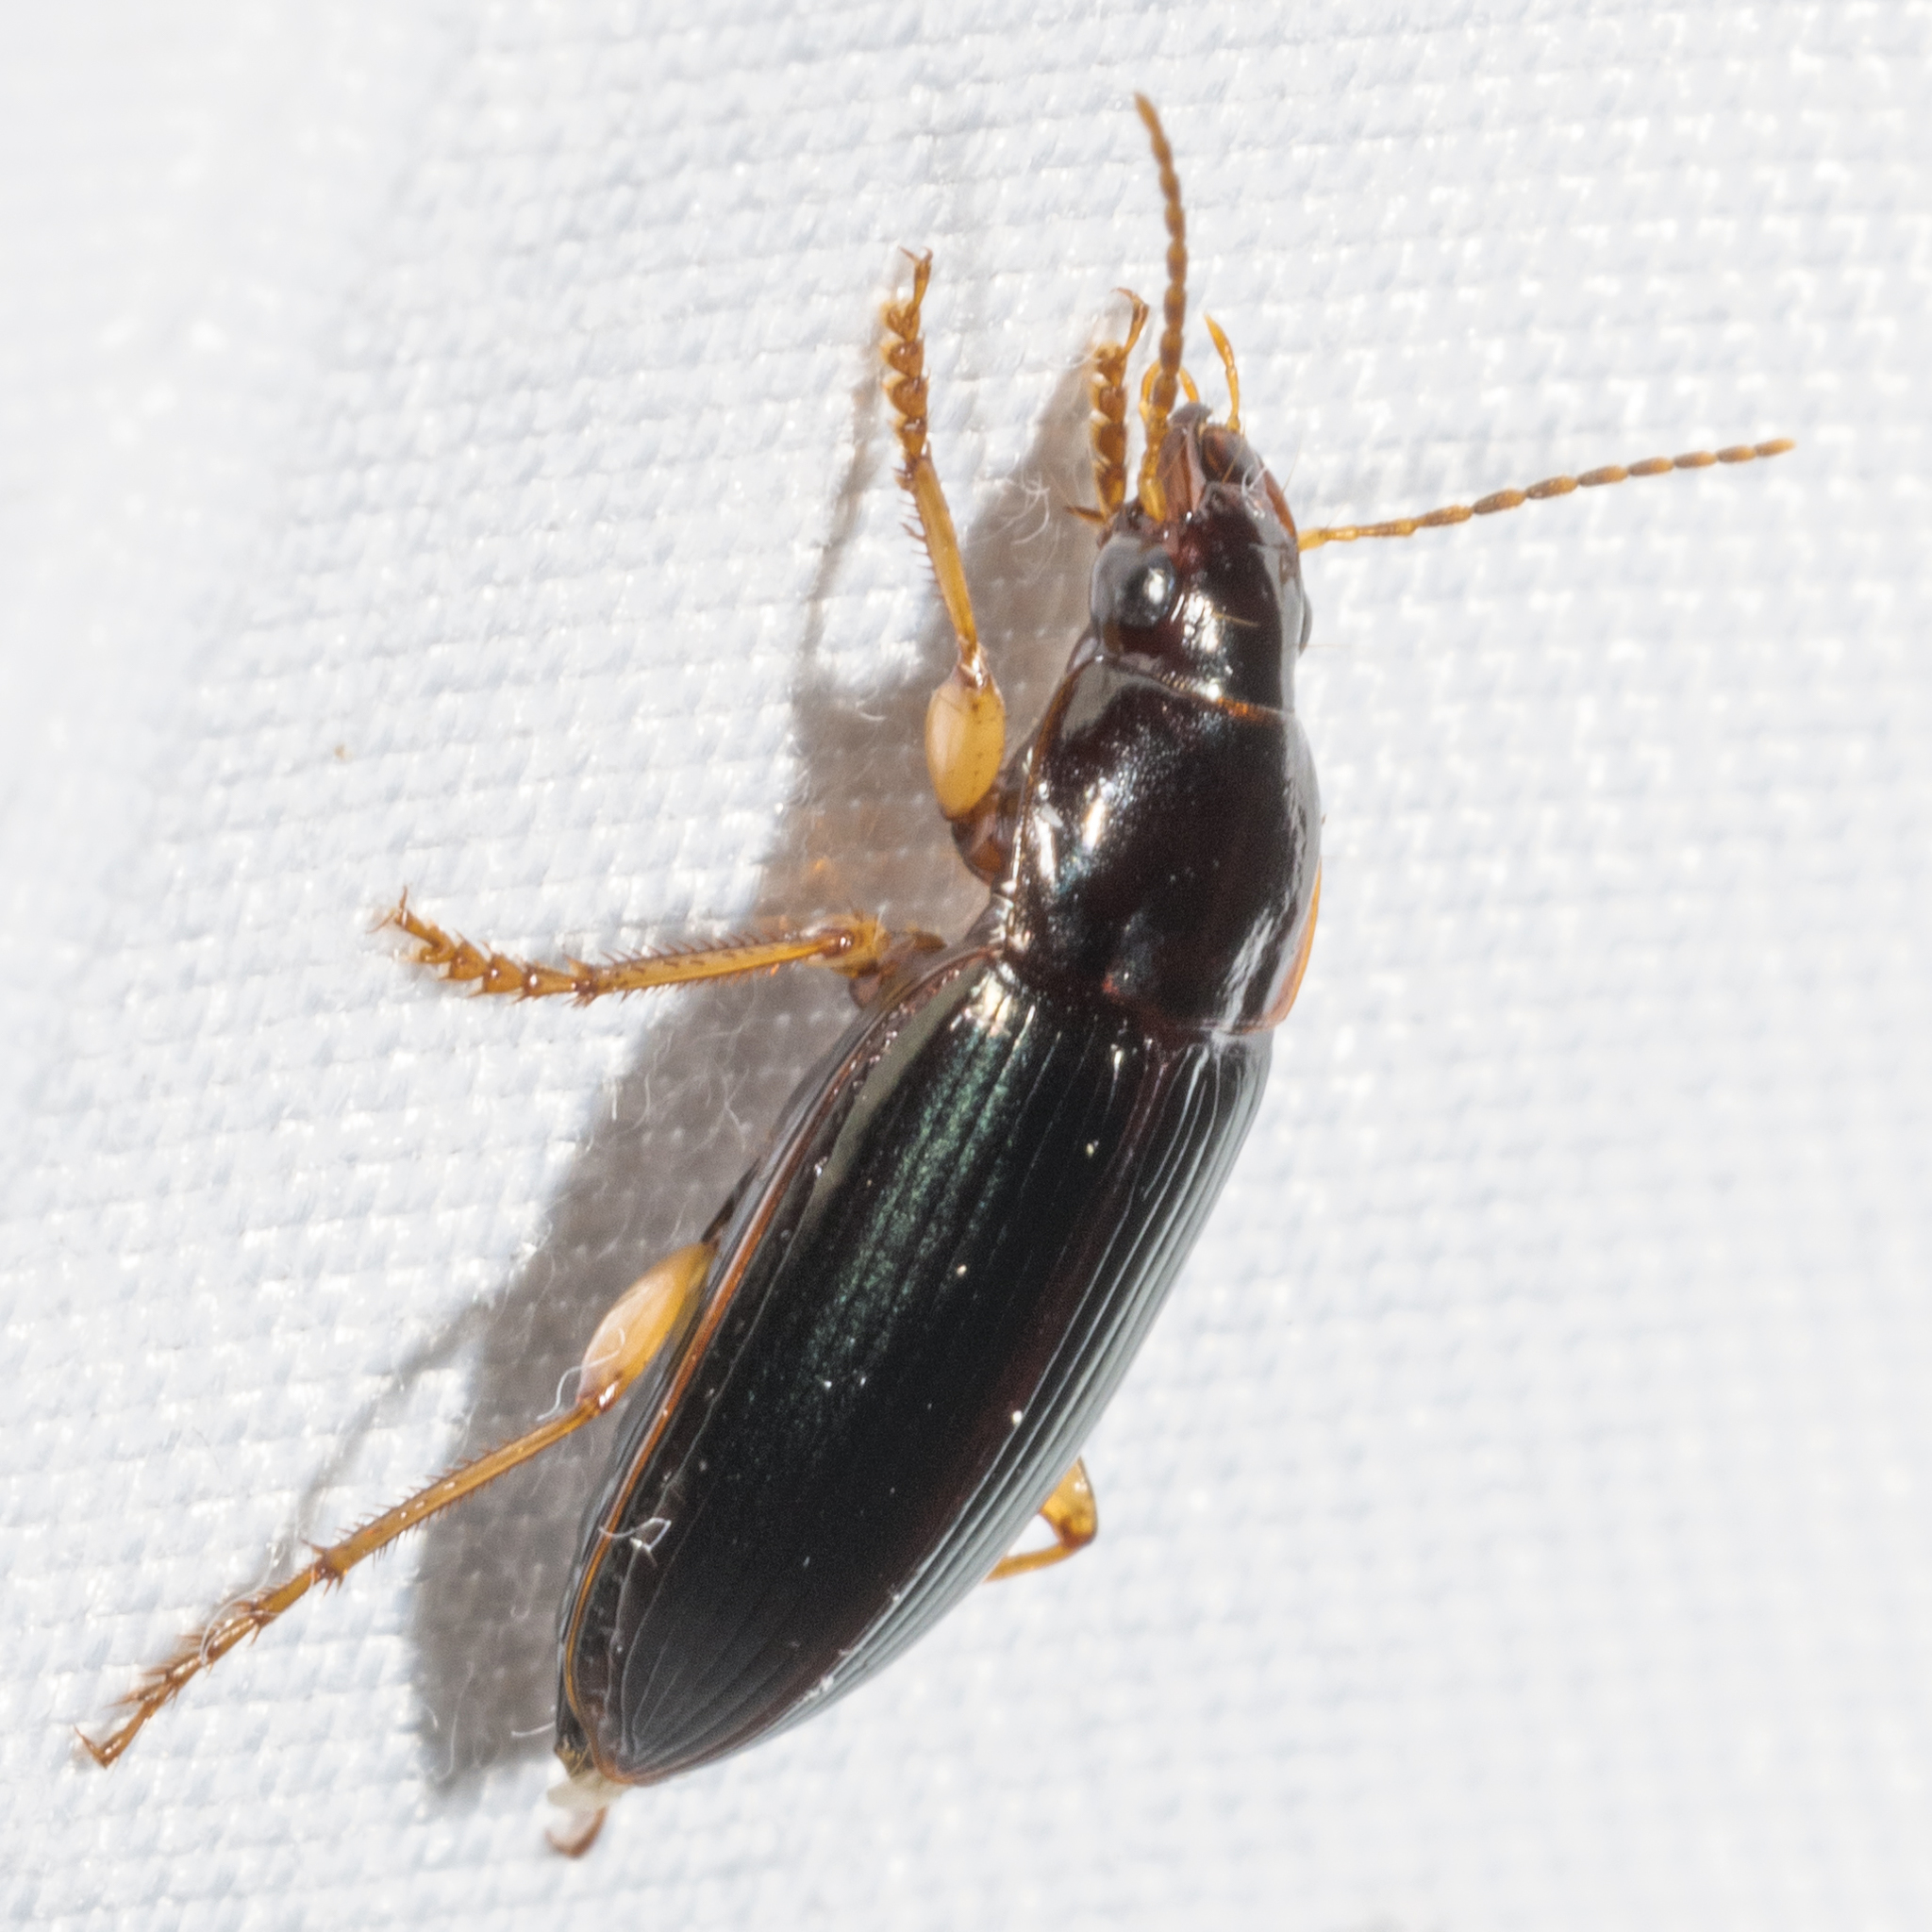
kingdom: Animalia
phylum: Arthropoda
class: Insecta
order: Coleoptera
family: Carabidae
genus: Notiobia
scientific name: Notiobia terminata
